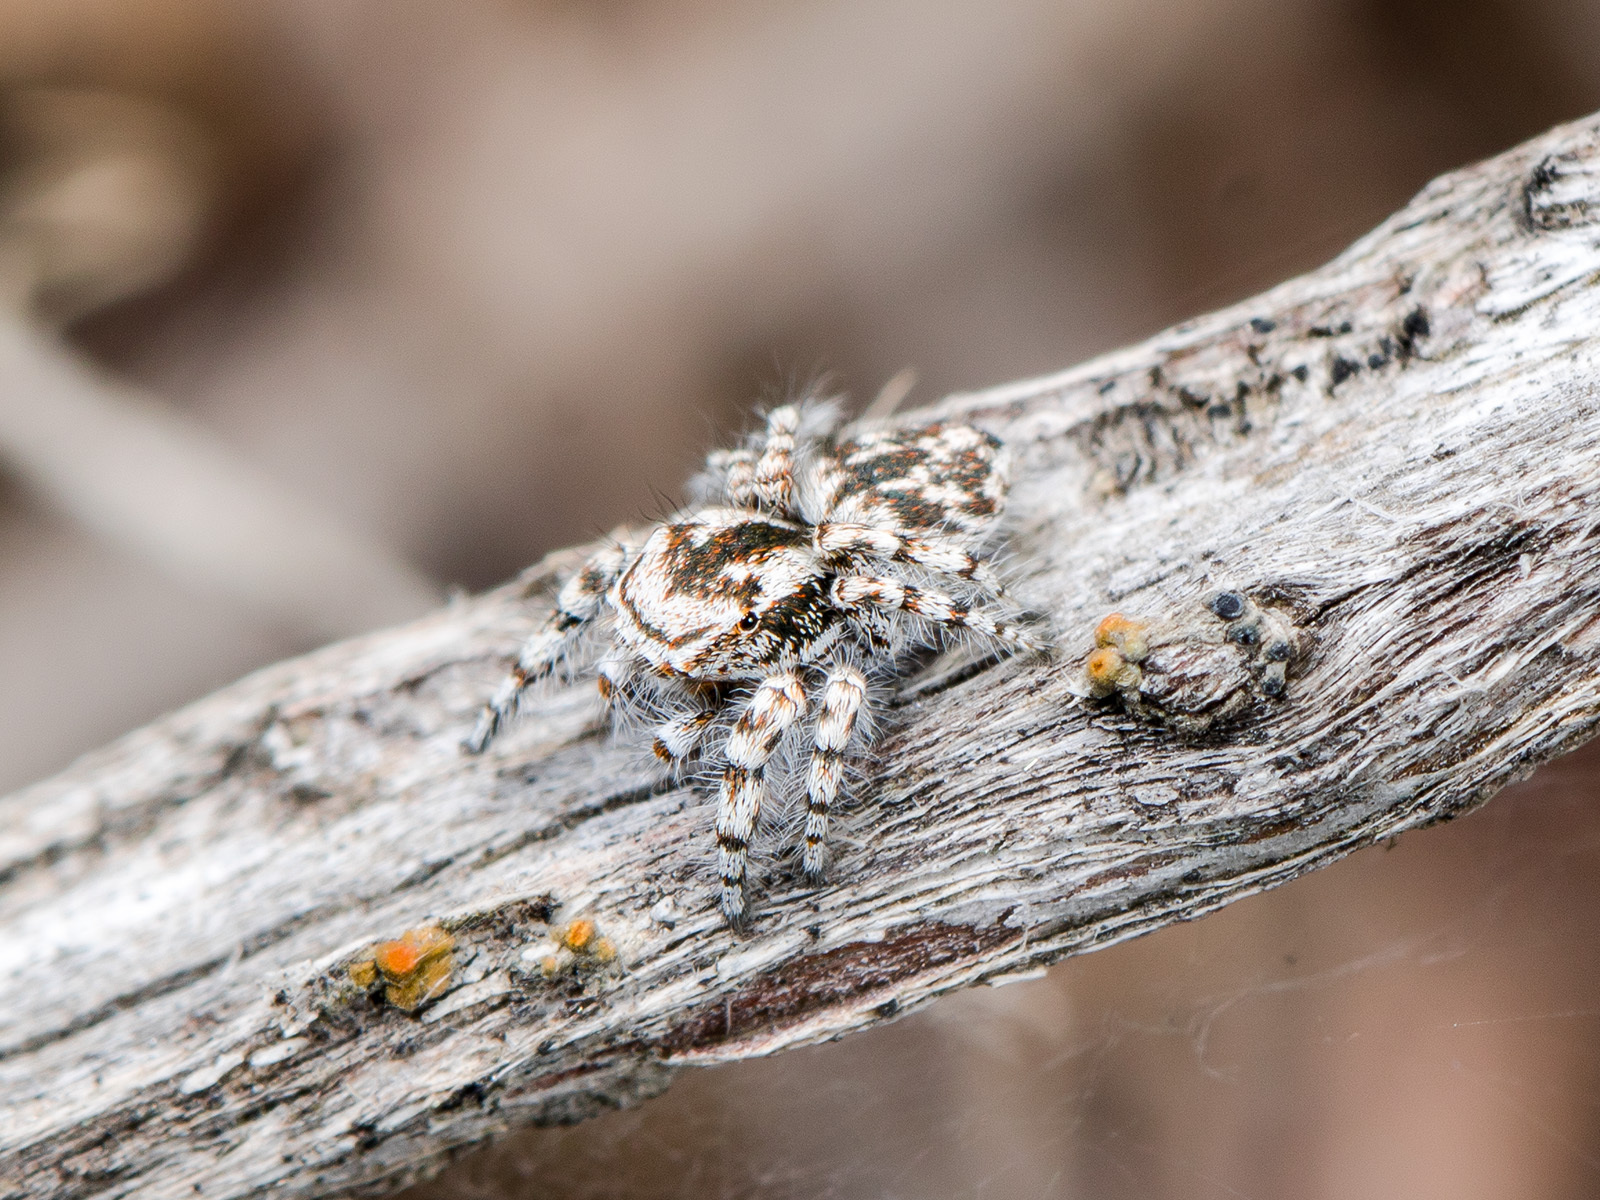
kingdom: Animalia
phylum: Arthropoda
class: Arachnida
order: Araneae
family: Salticidae
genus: Pseudomogrus
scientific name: Pseudomogrus dalaensis
